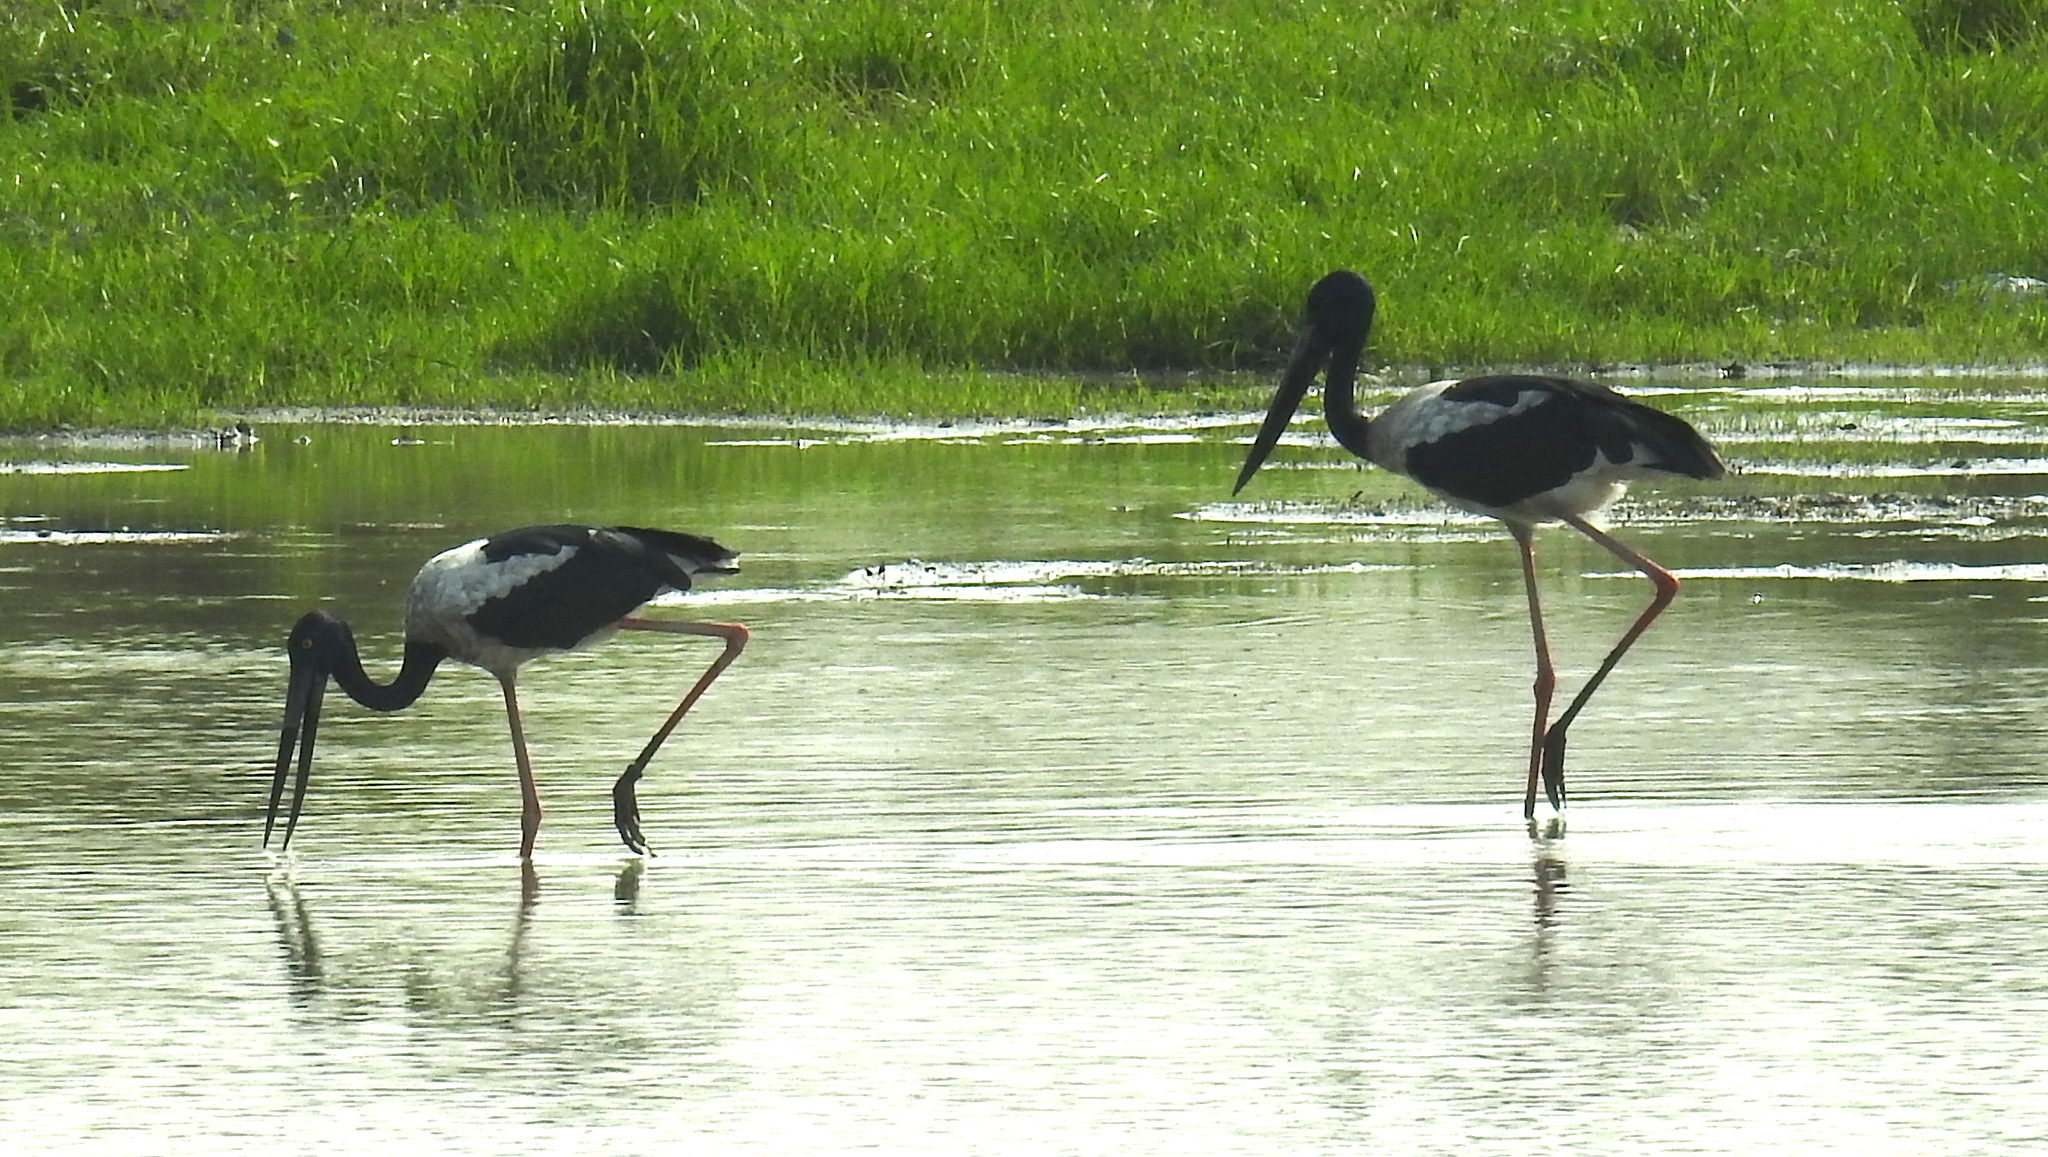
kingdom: Animalia
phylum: Chordata
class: Aves
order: Ciconiiformes
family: Ciconiidae
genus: Ephippiorhynchus
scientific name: Ephippiorhynchus asiaticus
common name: Black-necked stork
